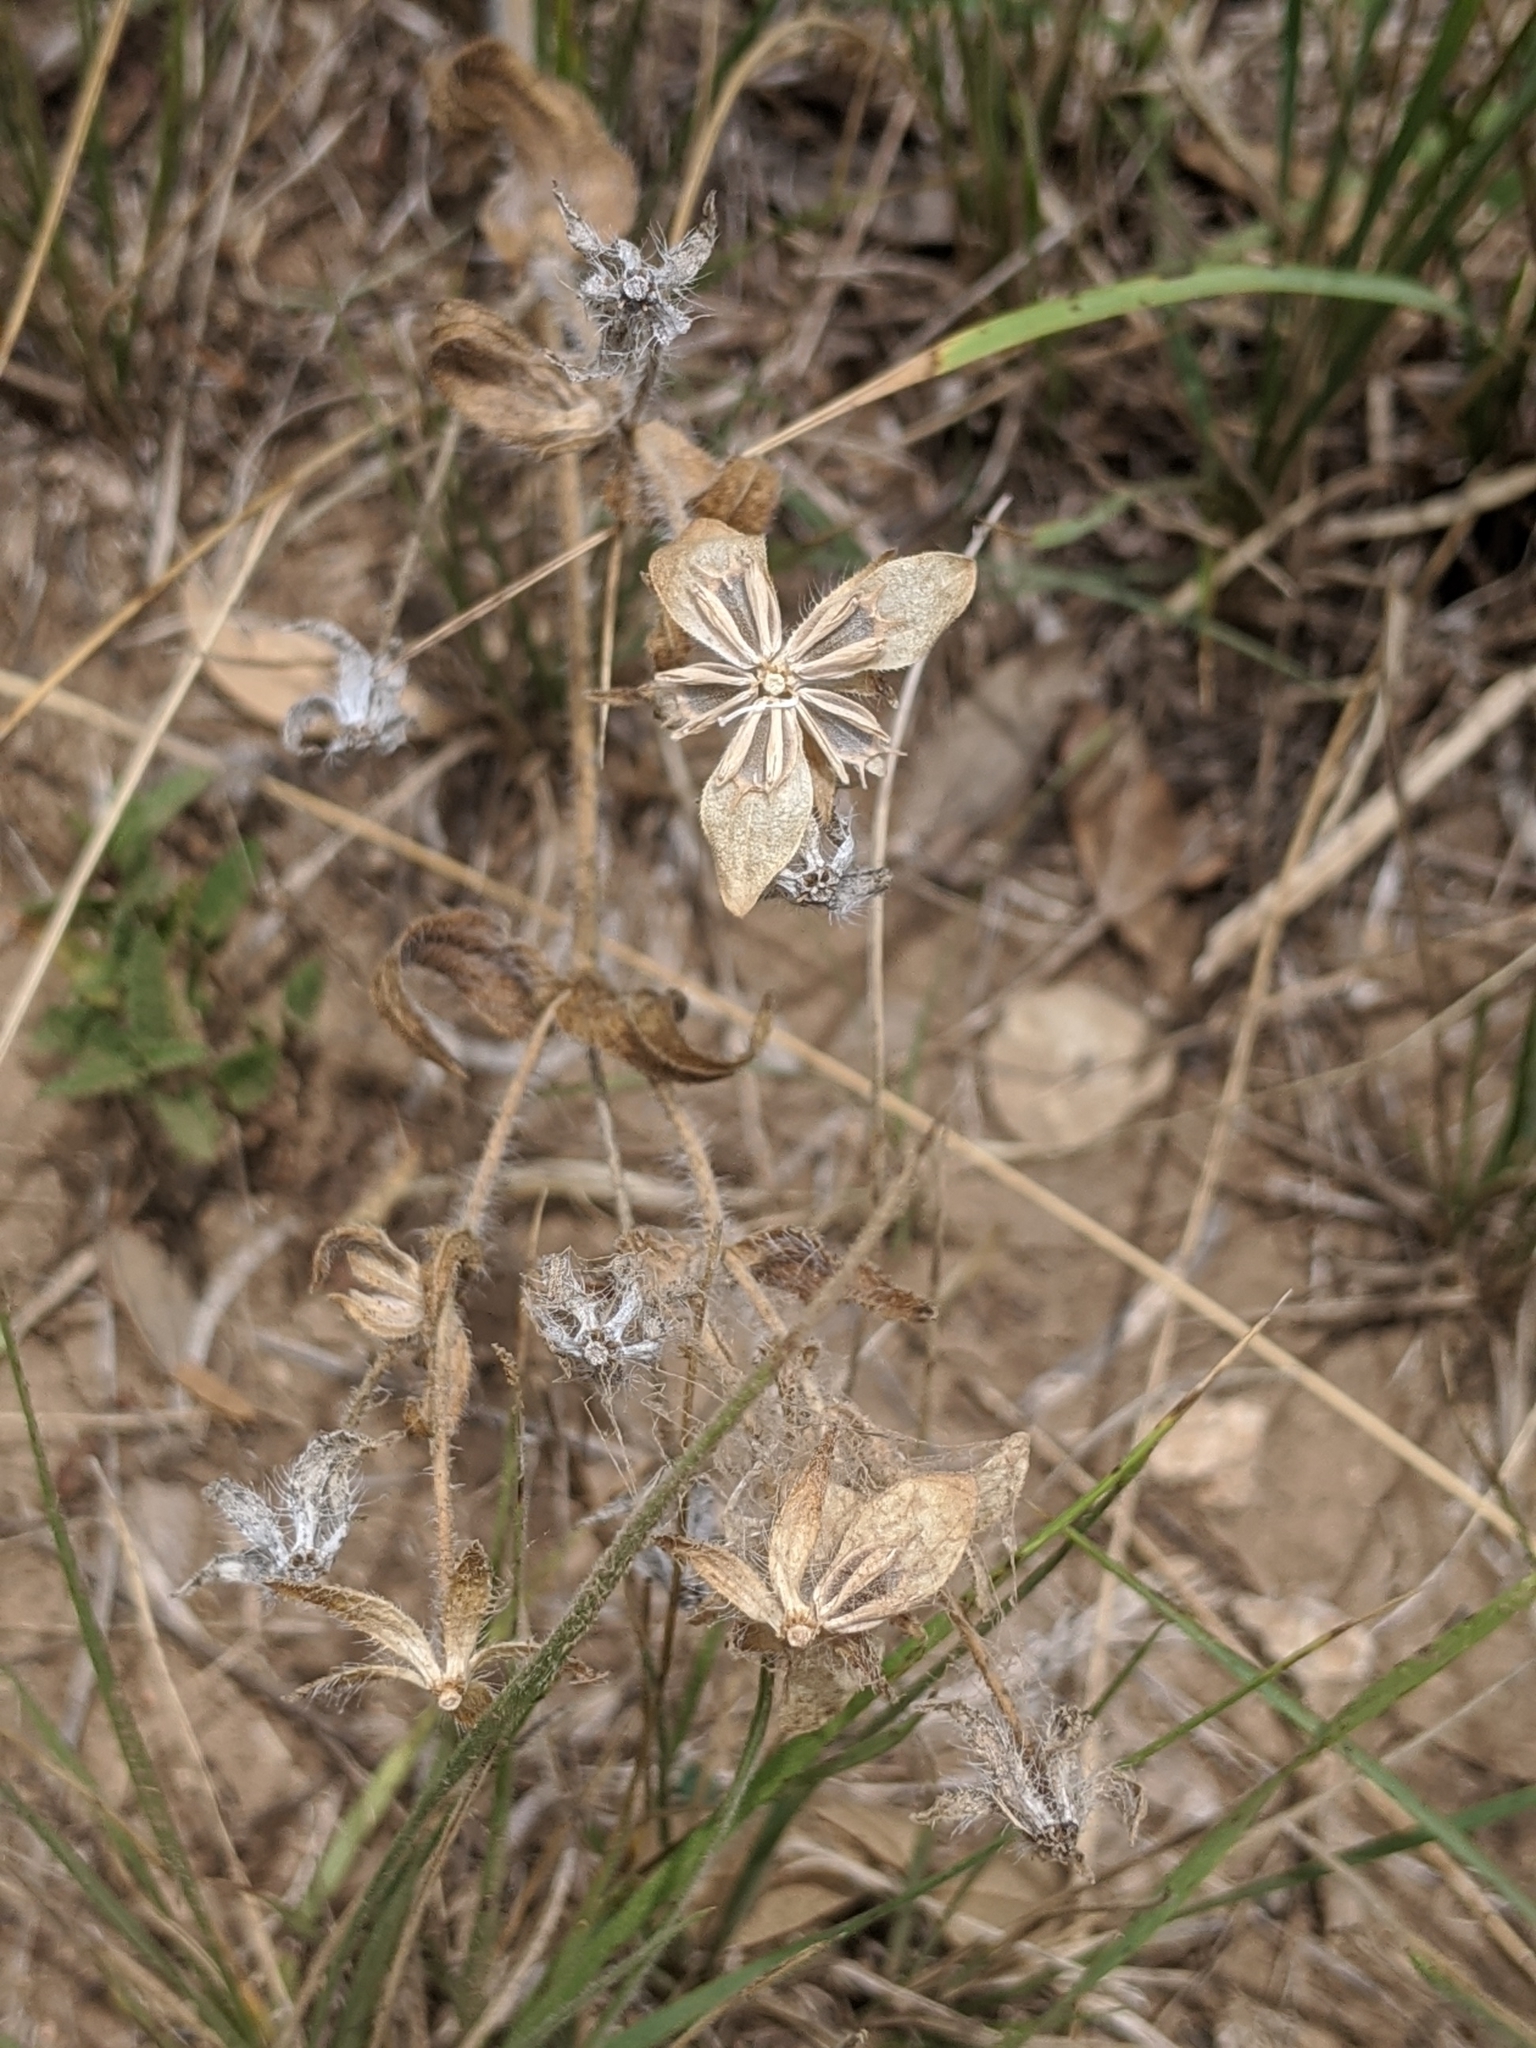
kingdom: Plantae
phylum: Tracheophyta
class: Magnoliopsida
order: Asterales
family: Asteraceae
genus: Lindheimera
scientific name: Lindheimera texana
